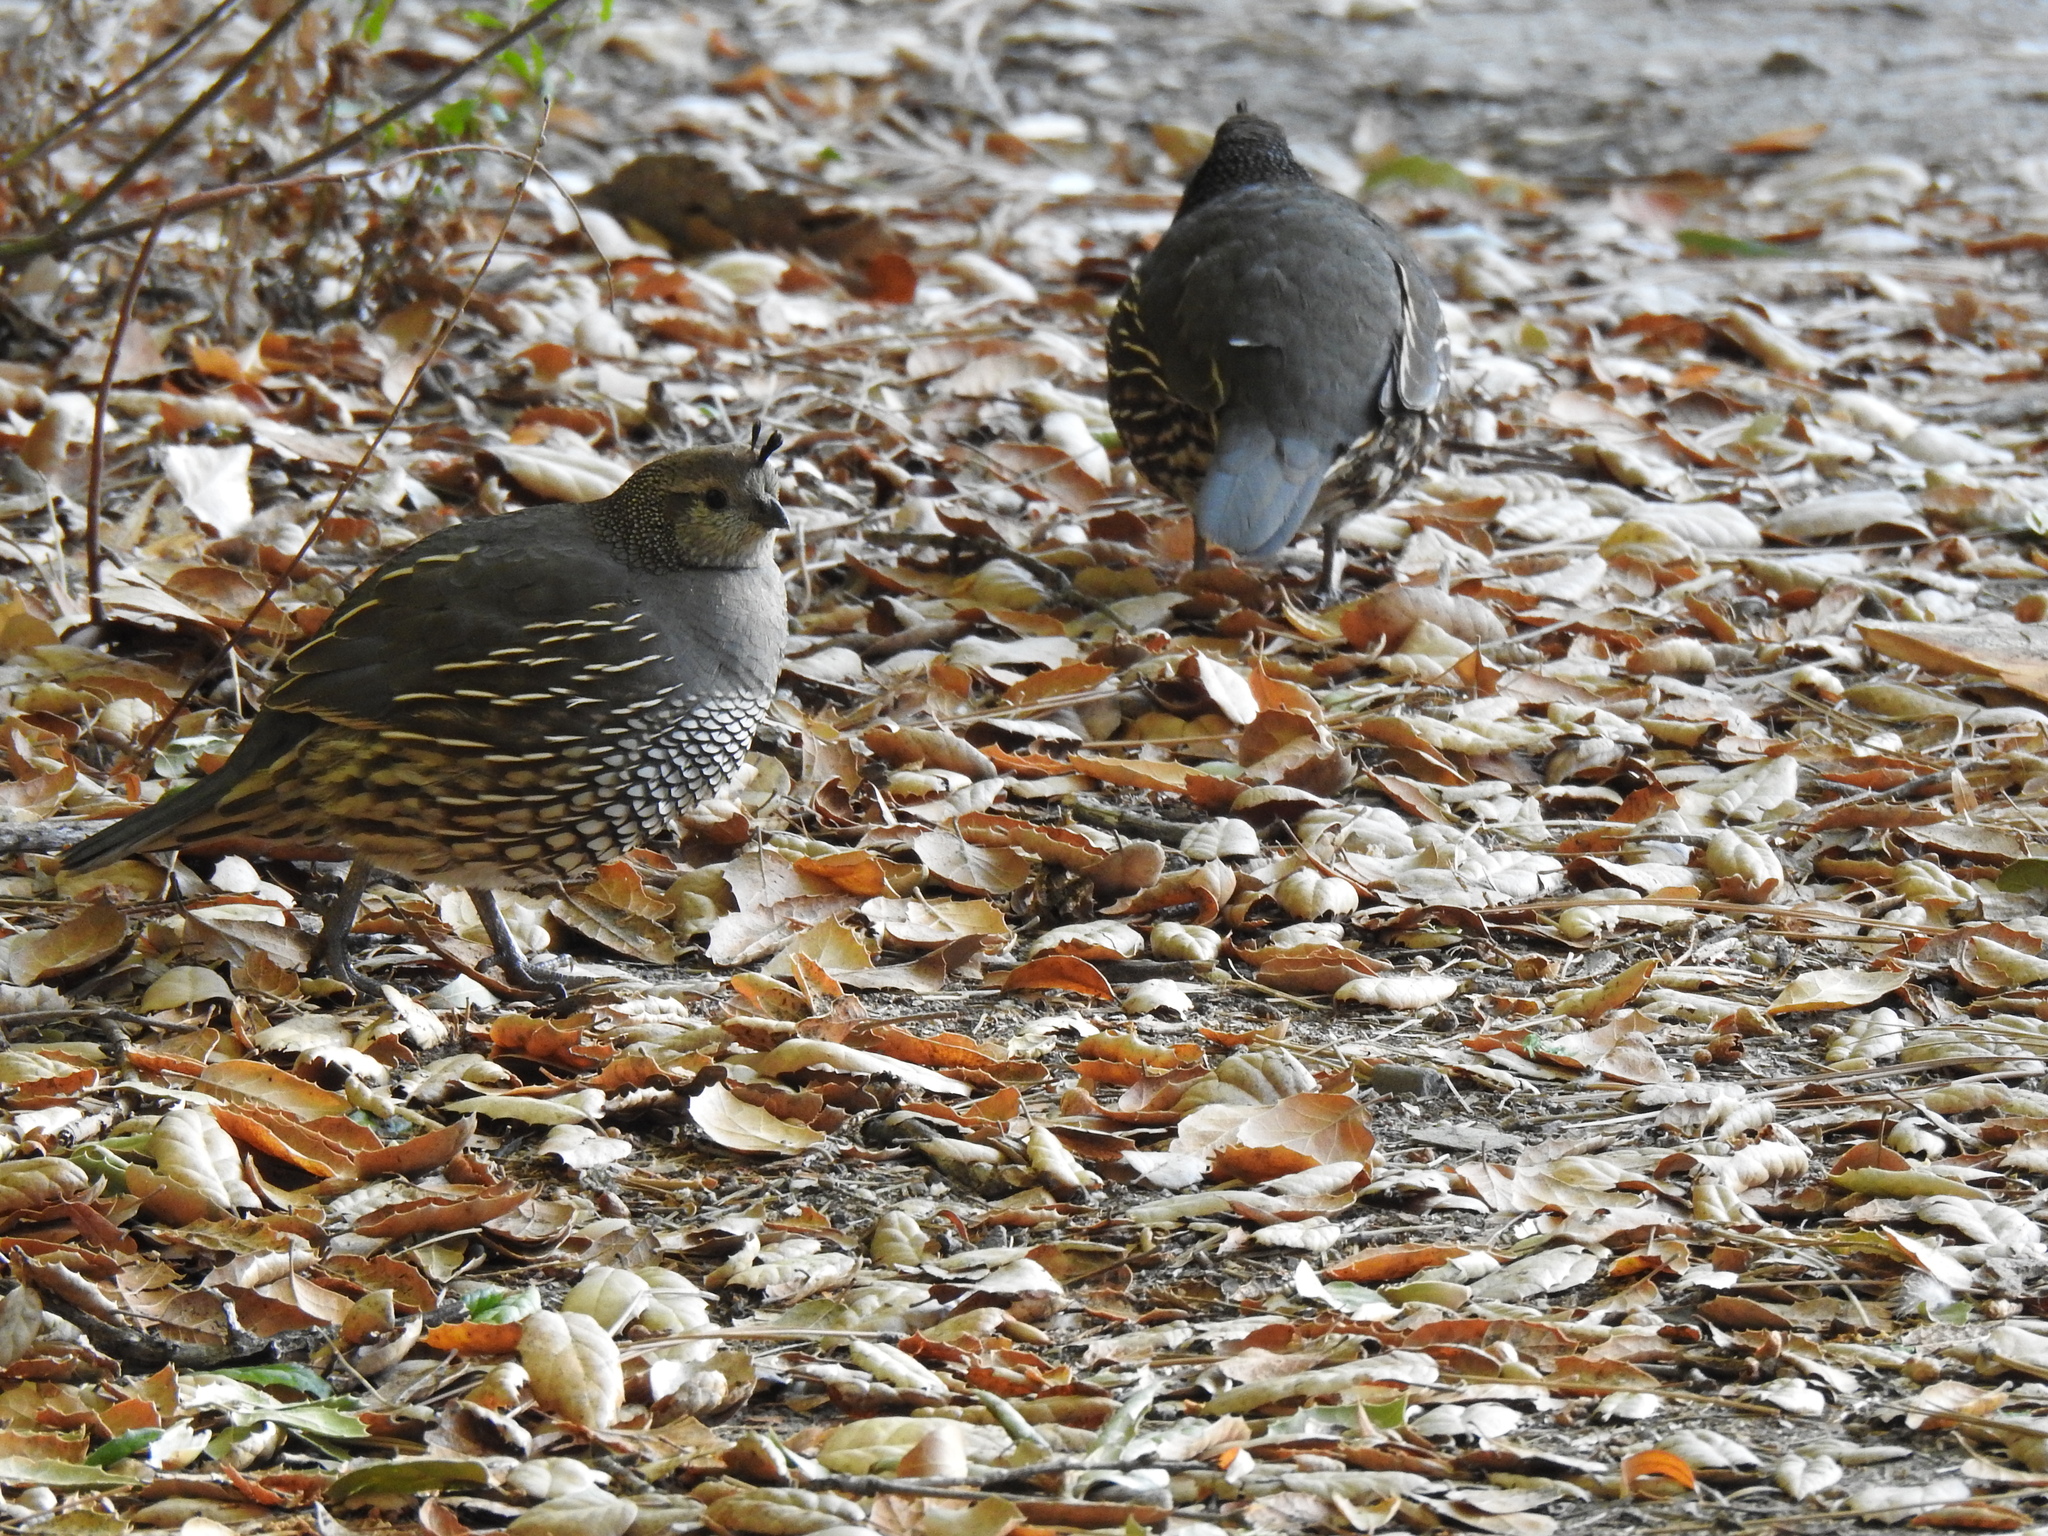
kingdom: Animalia
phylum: Chordata
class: Aves
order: Galliformes
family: Odontophoridae
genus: Callipepla
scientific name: Callipepla californica
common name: California quail
